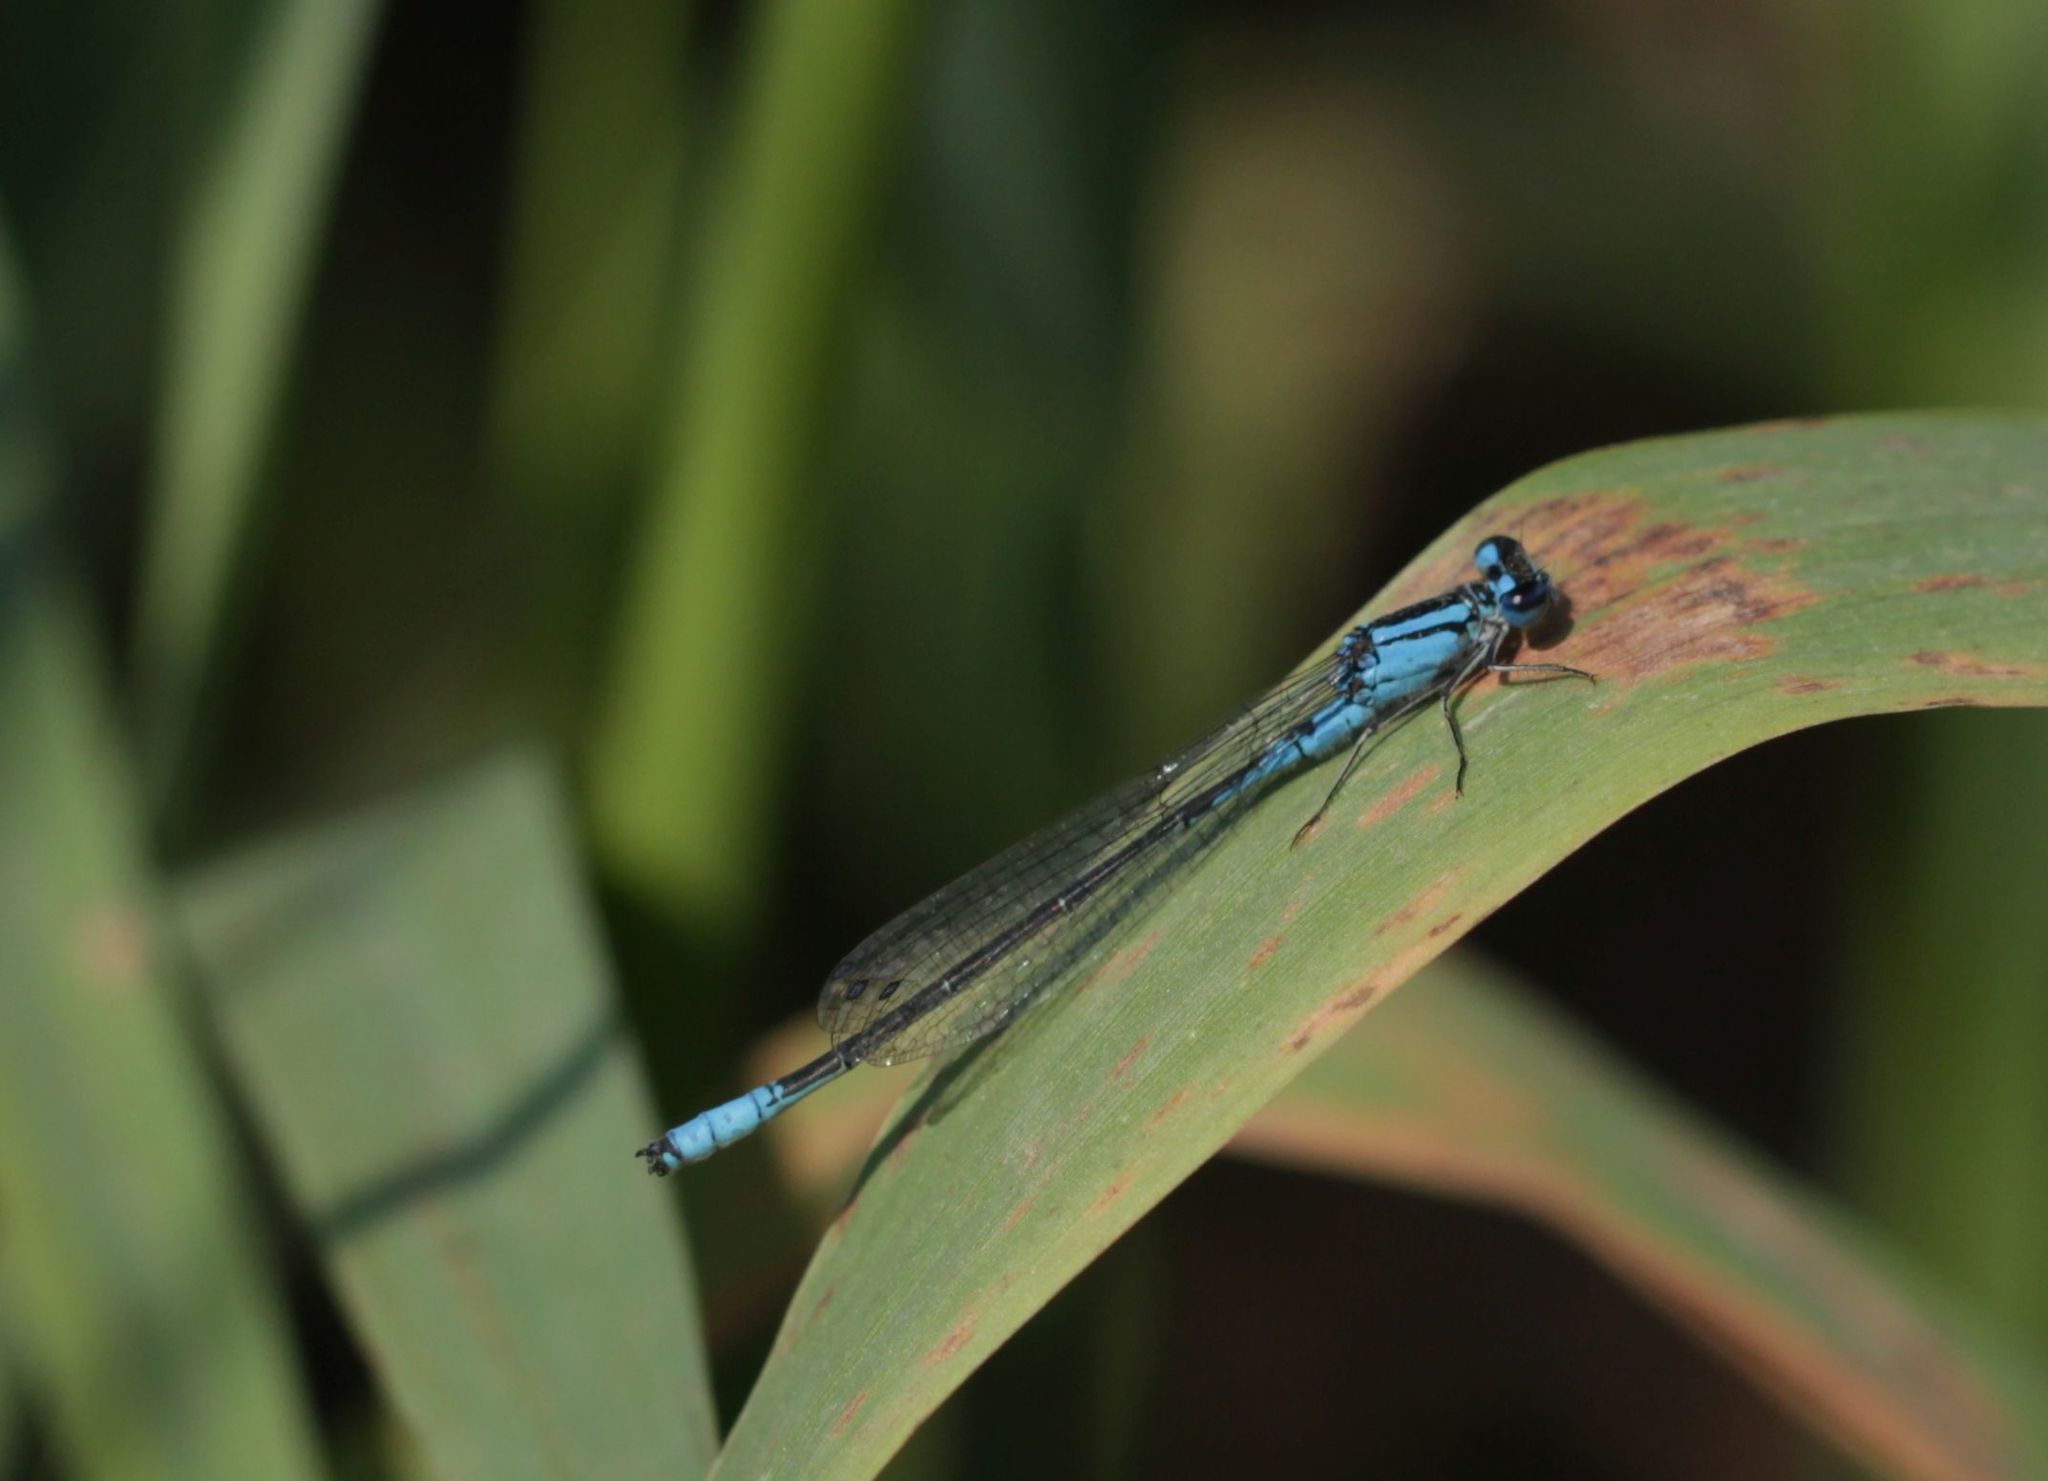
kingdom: Animalia
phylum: Arthropoda
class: Insecta
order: Odonata
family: Coenagrionidae
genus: Enallagma
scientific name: Enallagma aspersum
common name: Azure bluet
